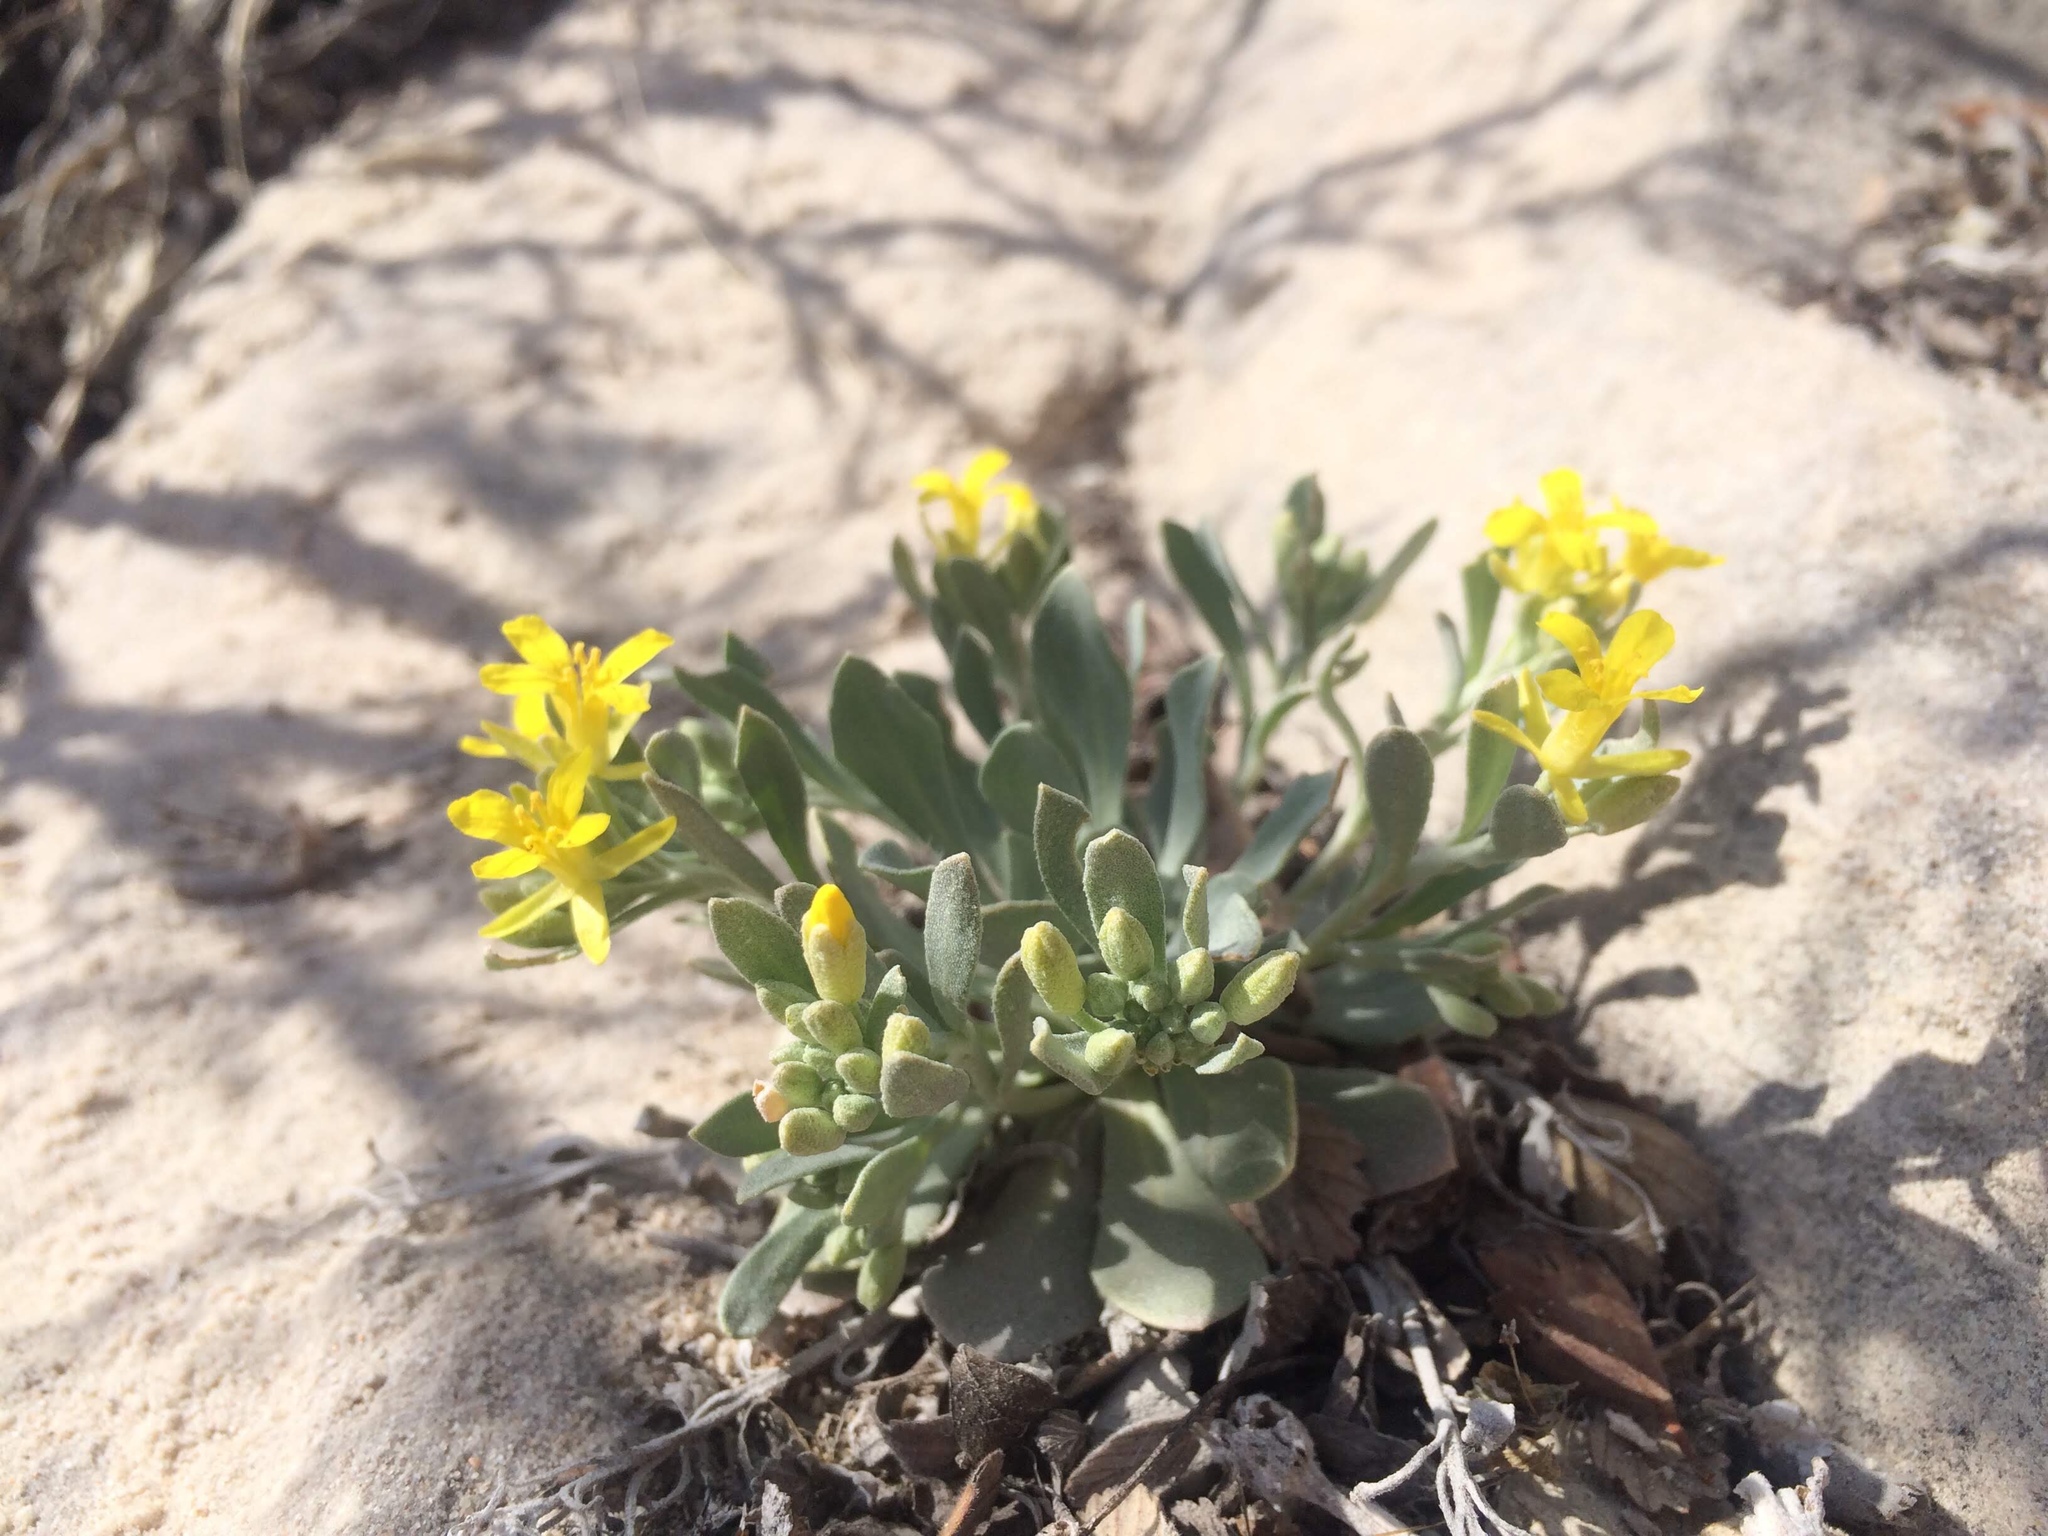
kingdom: Plantae
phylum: Tracheophyta
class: Magnoliopsida
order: Brassicales
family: Brassicaceae
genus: Physaria
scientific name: Physaria bellii
